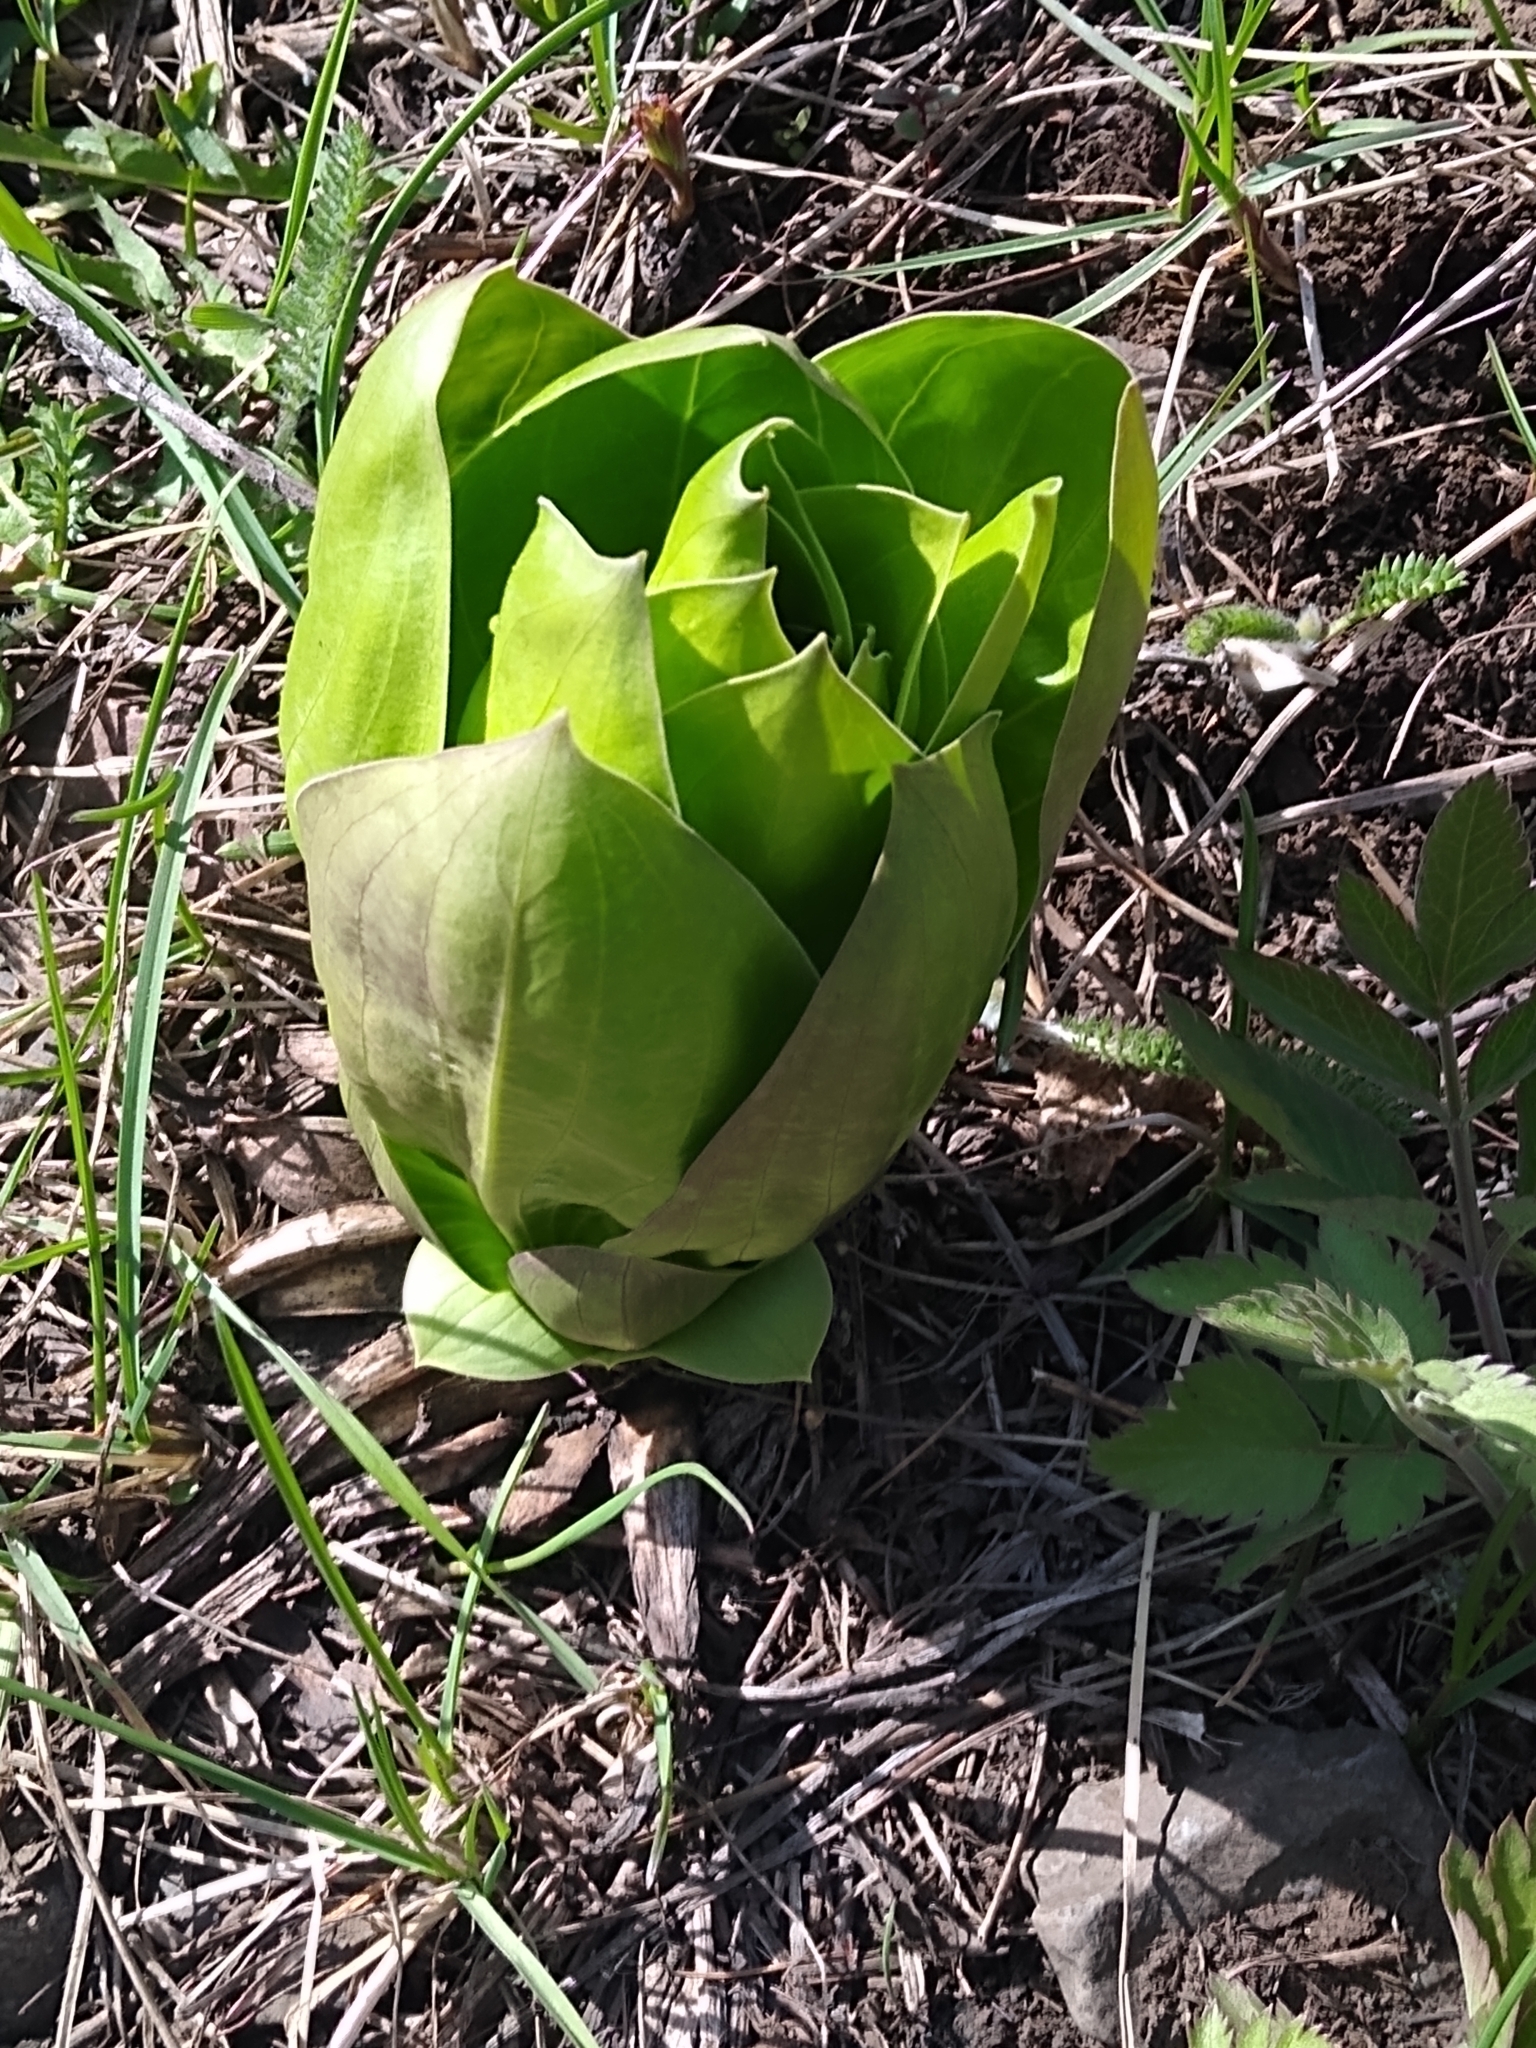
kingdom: Plantae
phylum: Tracheophyta
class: Magnoliopsida
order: Gentianales
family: Gentianaceae
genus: Frasera
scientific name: Frasera speciosa
